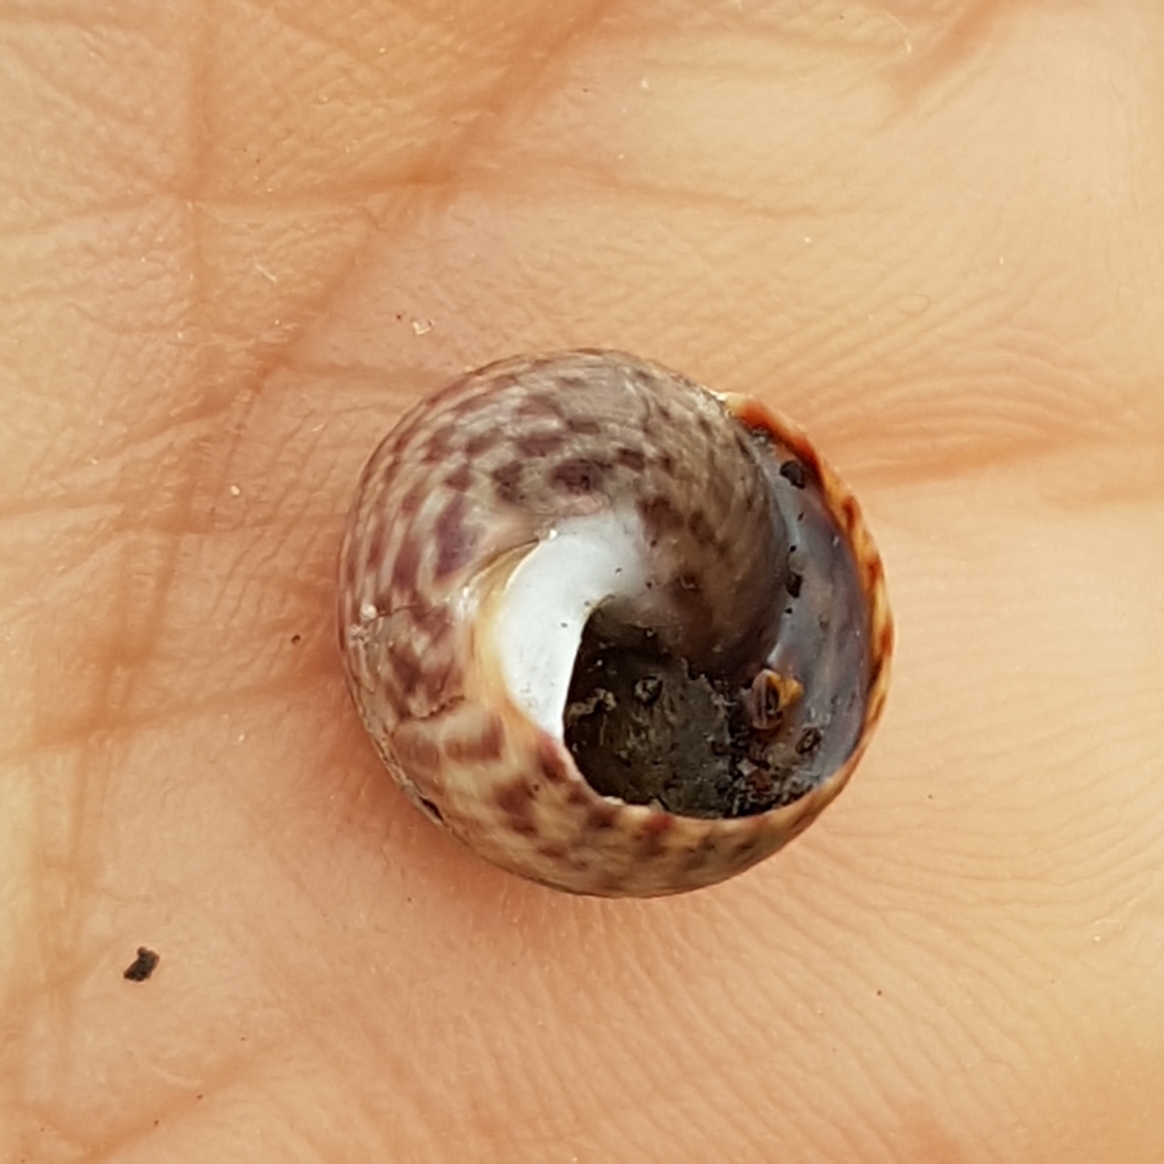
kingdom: Animalia
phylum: Mollusca
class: Gastropoda
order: Trochida
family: Trochidae
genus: Phorcus
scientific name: Phorcus sauciatus
